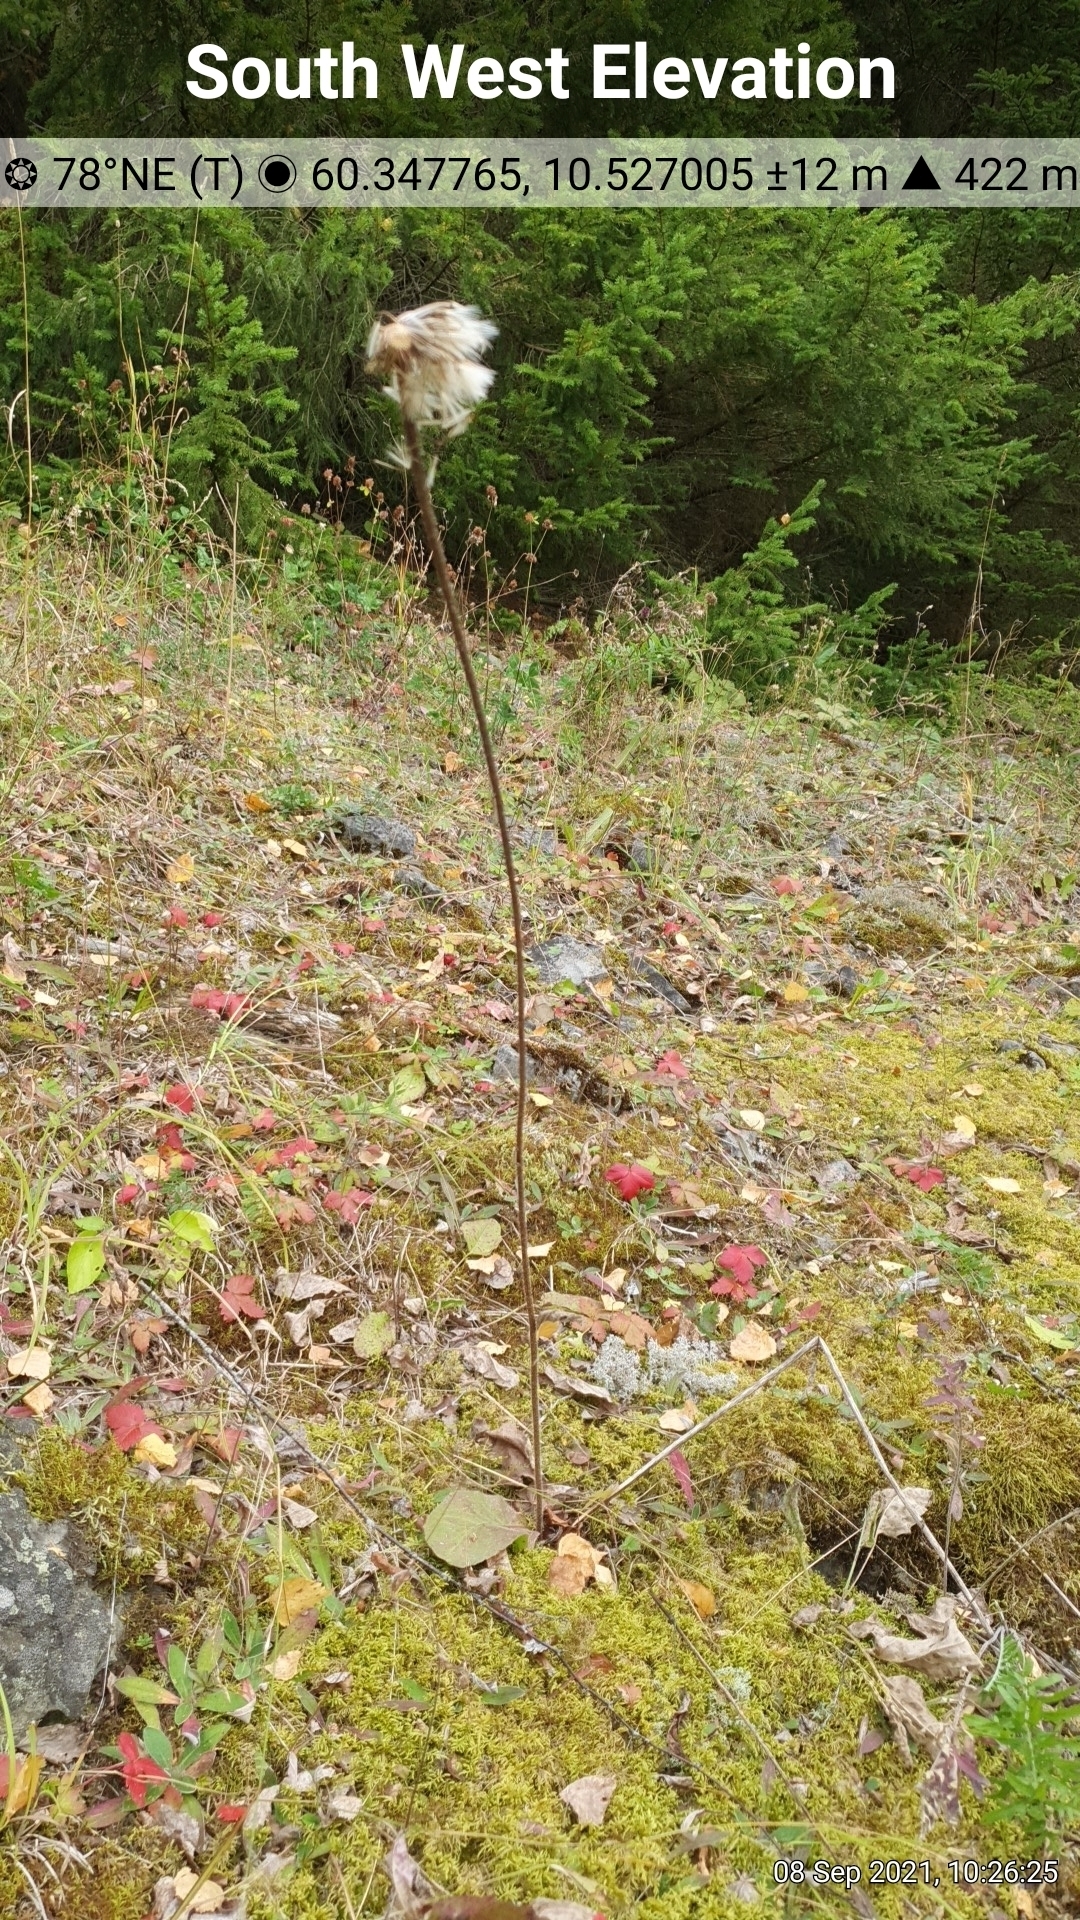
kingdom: Plantae
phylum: Tracheophyta
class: Magnoliopsida
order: Asterales
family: Asteraceae
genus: Trommsdorffia
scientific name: Trommsdorffia maculata
